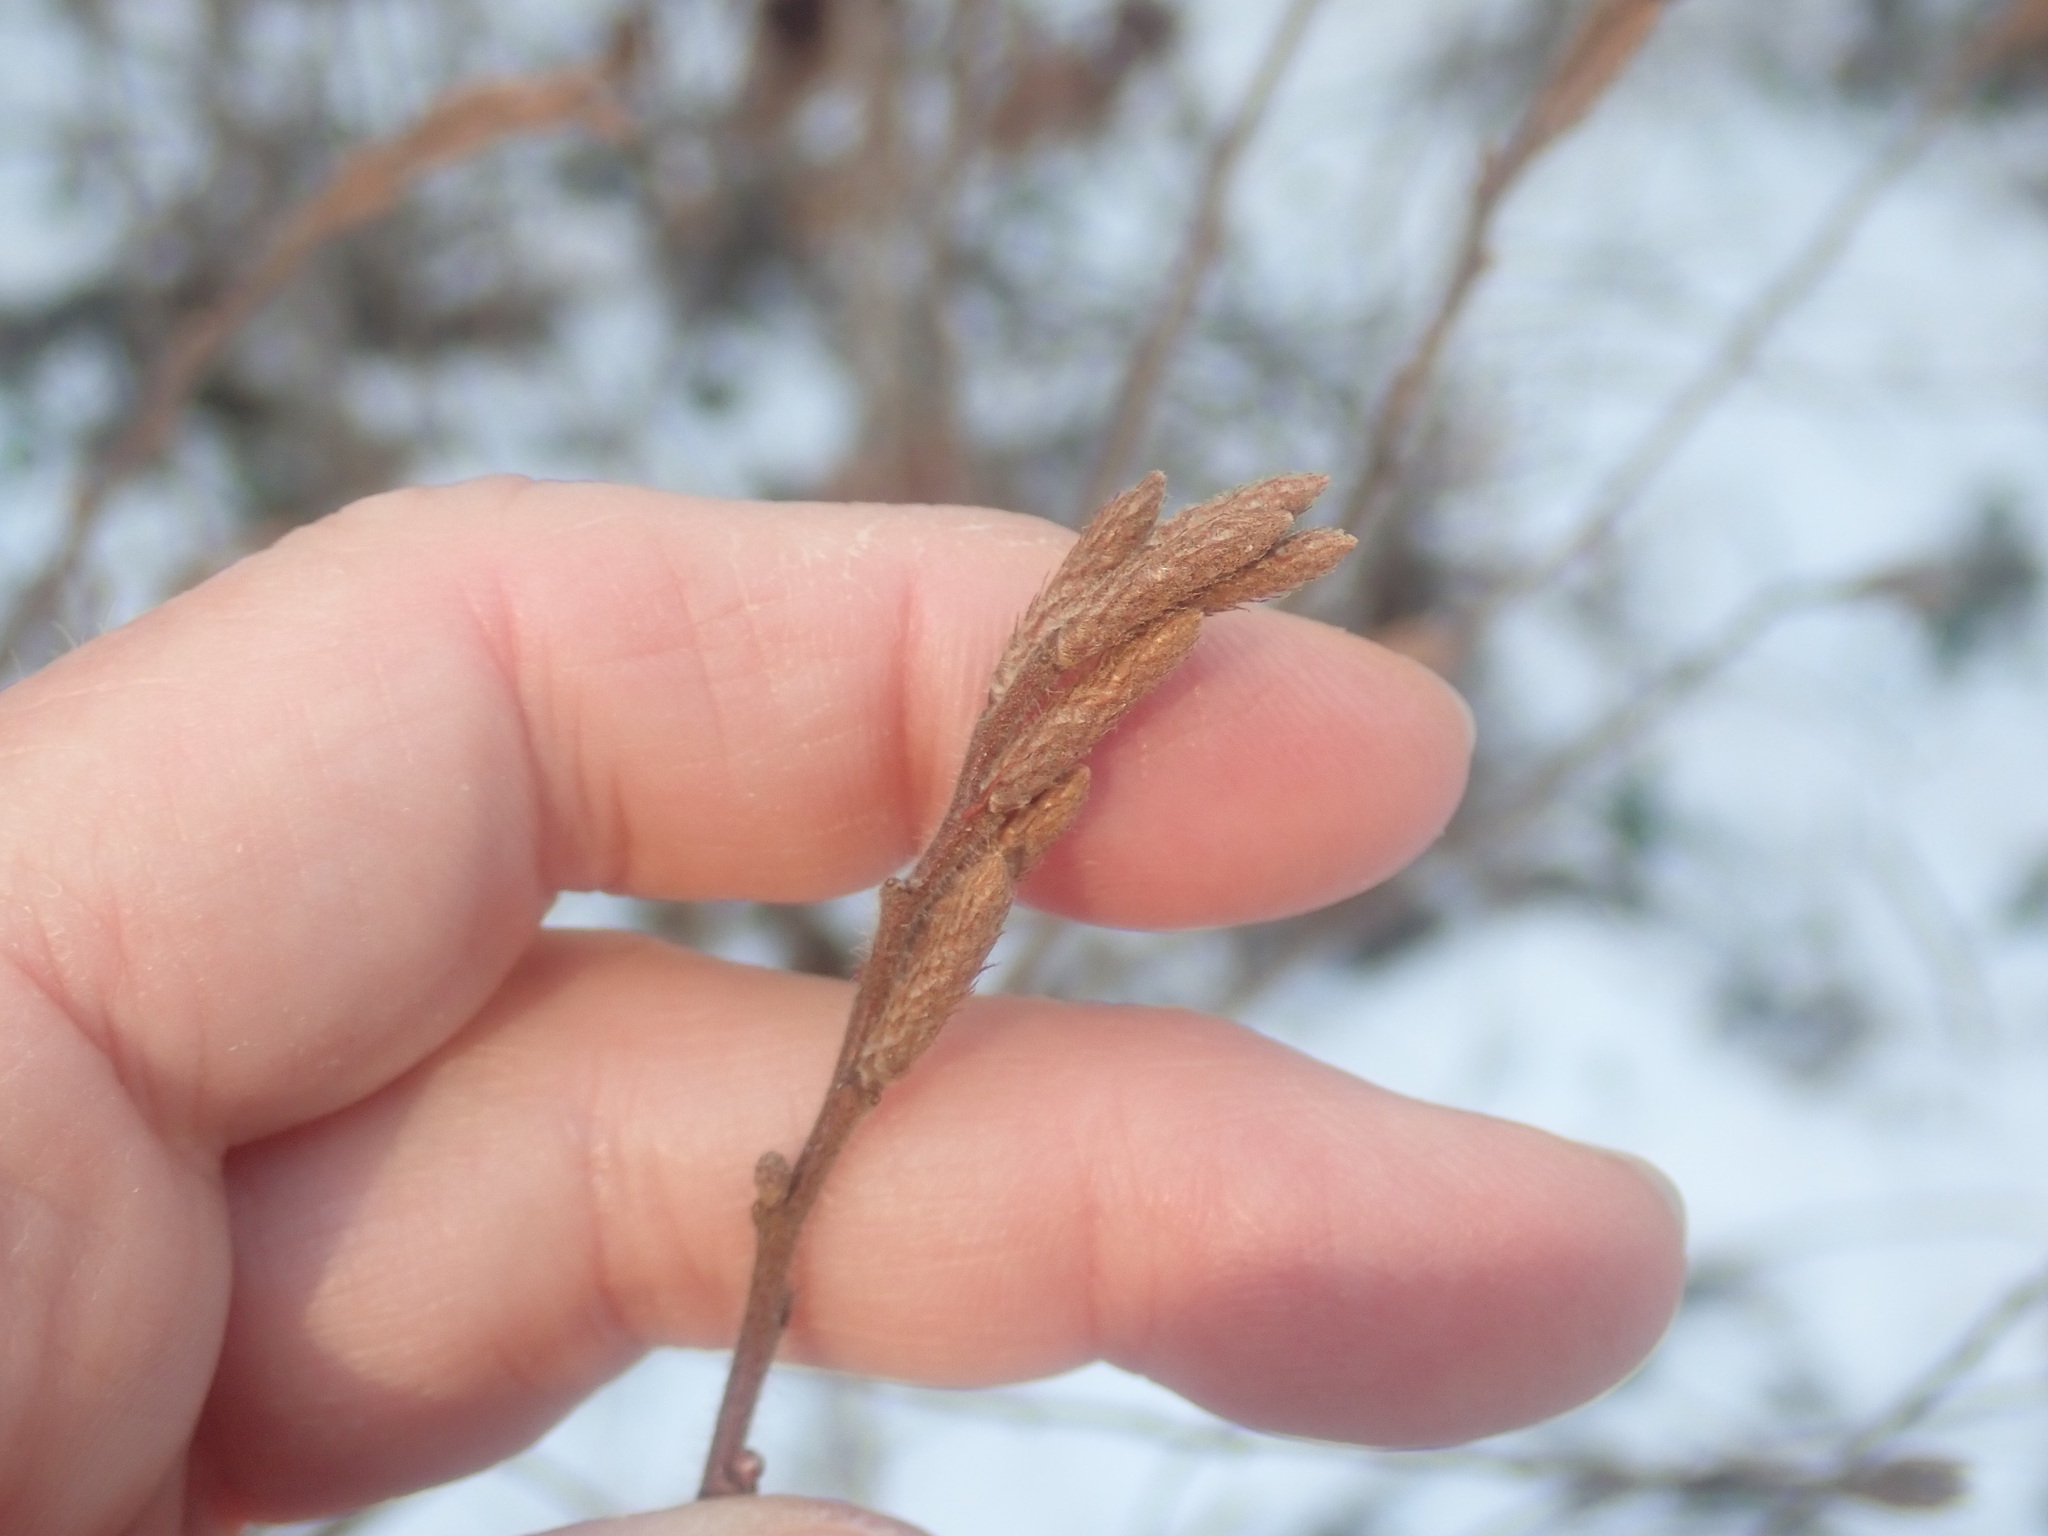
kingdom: Plantae
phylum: Tracheophyta
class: Magnoliopsida
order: Fagales
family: Myricaceae
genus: Comptonia
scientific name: Comptonia peregrina
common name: Sweet-fern
